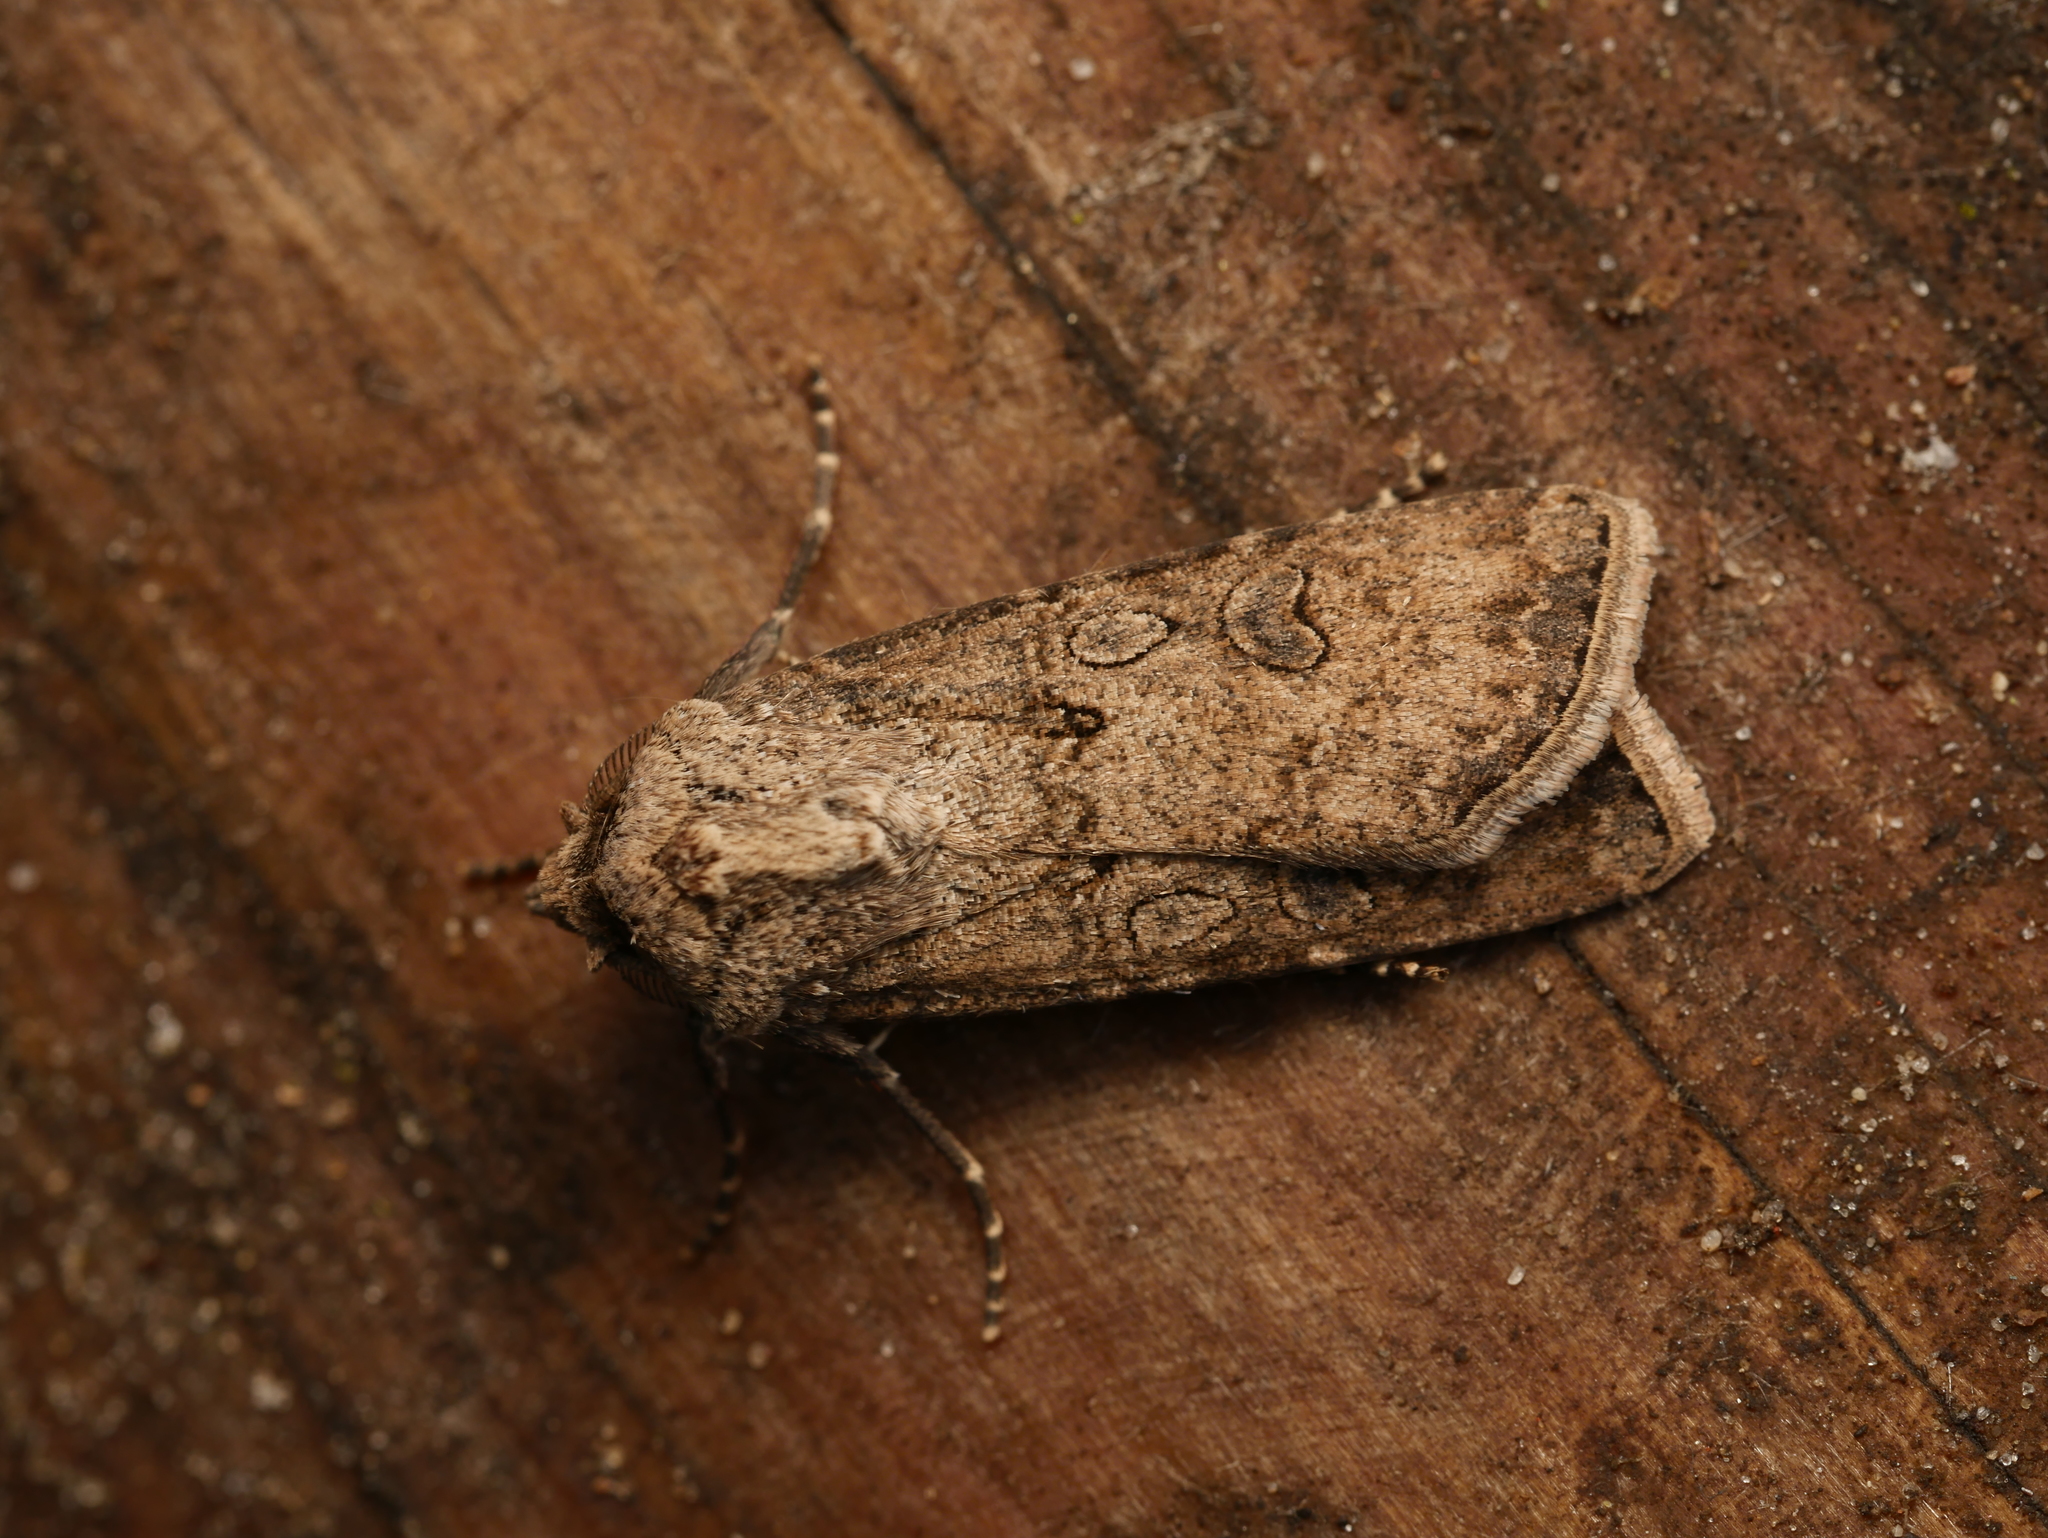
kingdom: Animalia
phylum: Arthropoda
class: Insecta
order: Lepidoptera
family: Noctuidae
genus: Agrotis
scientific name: Agrotis segetum
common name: Turnip moth
